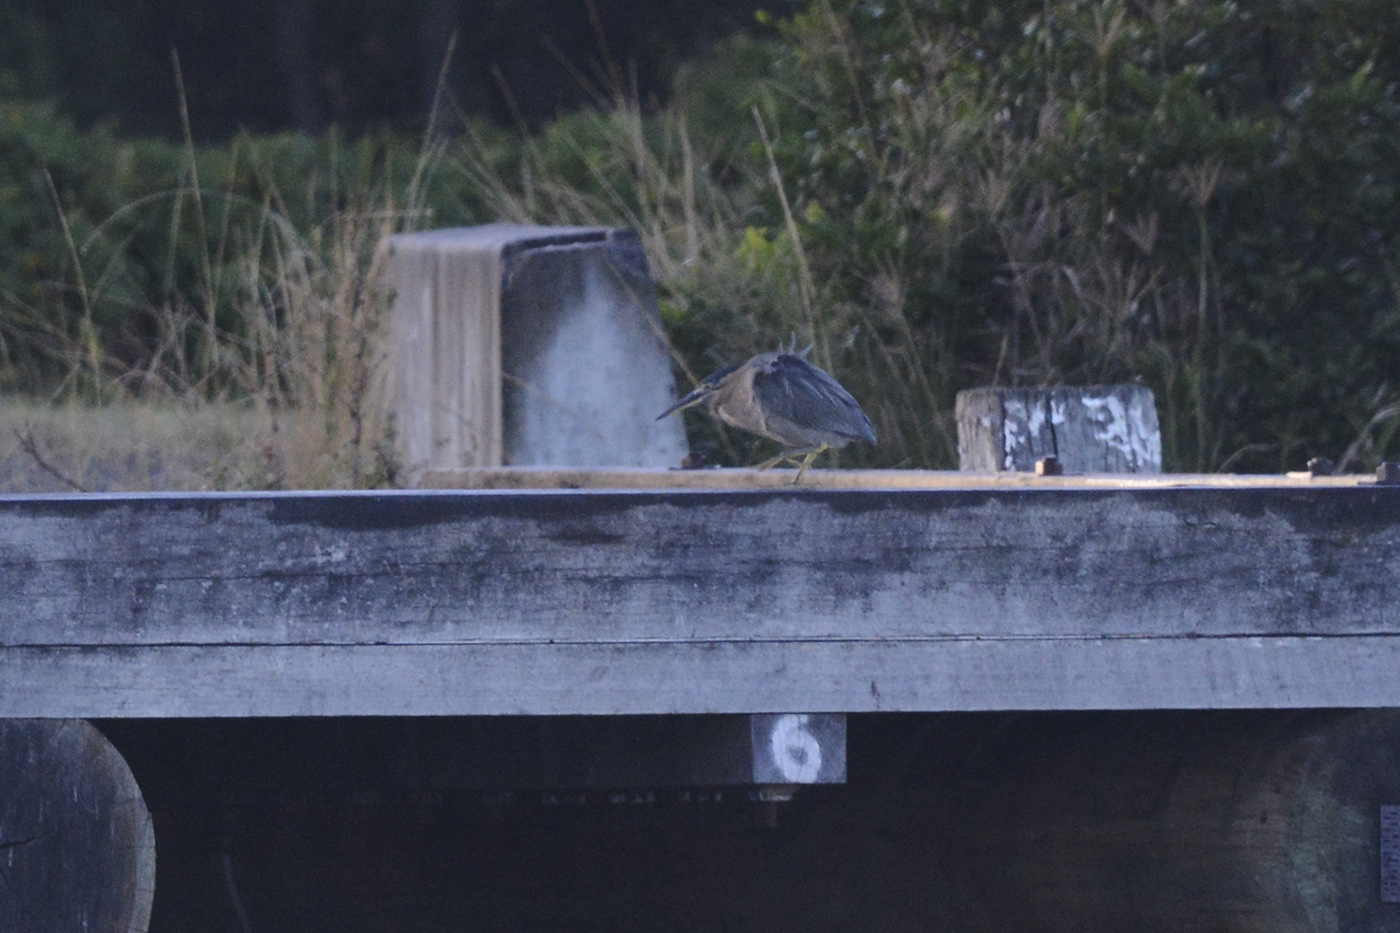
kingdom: Animalia
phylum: Chordata
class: Aves
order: Pelecaniformes
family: Ardeidae
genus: Butorides
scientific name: Butorides striata
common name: Striated heron
